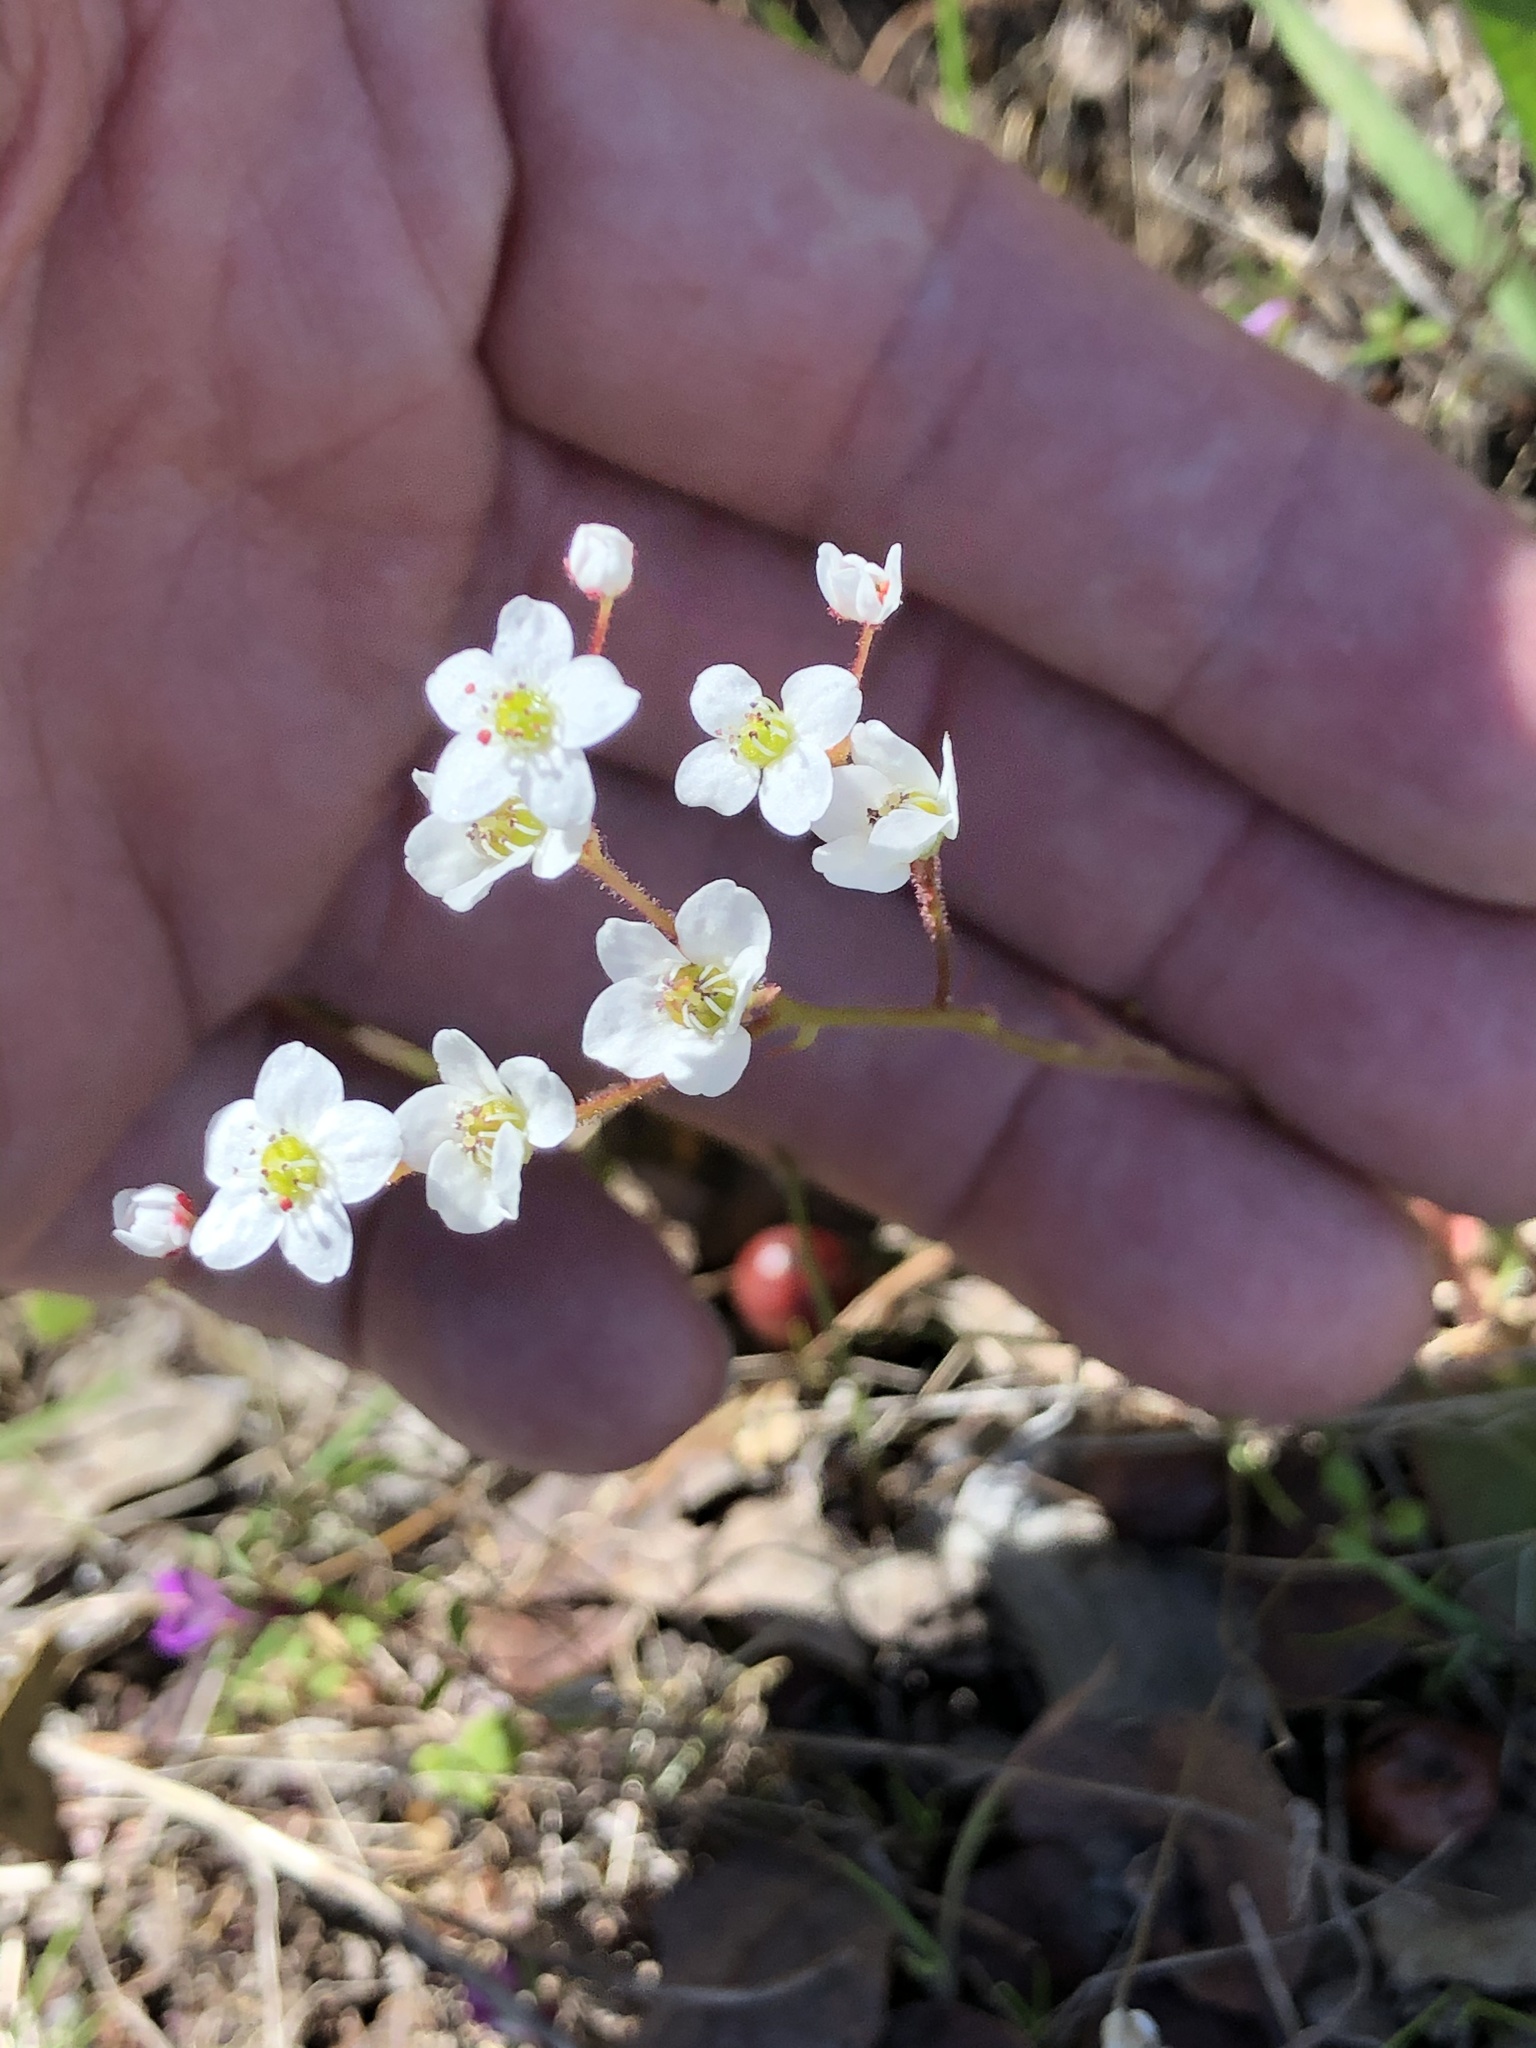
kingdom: Plantae
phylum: Tracheophyta
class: Magnoliopsida
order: Saxifragales
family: Saxifragaceae
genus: Micranthes
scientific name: Micranthes californica
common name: California saxifrage
